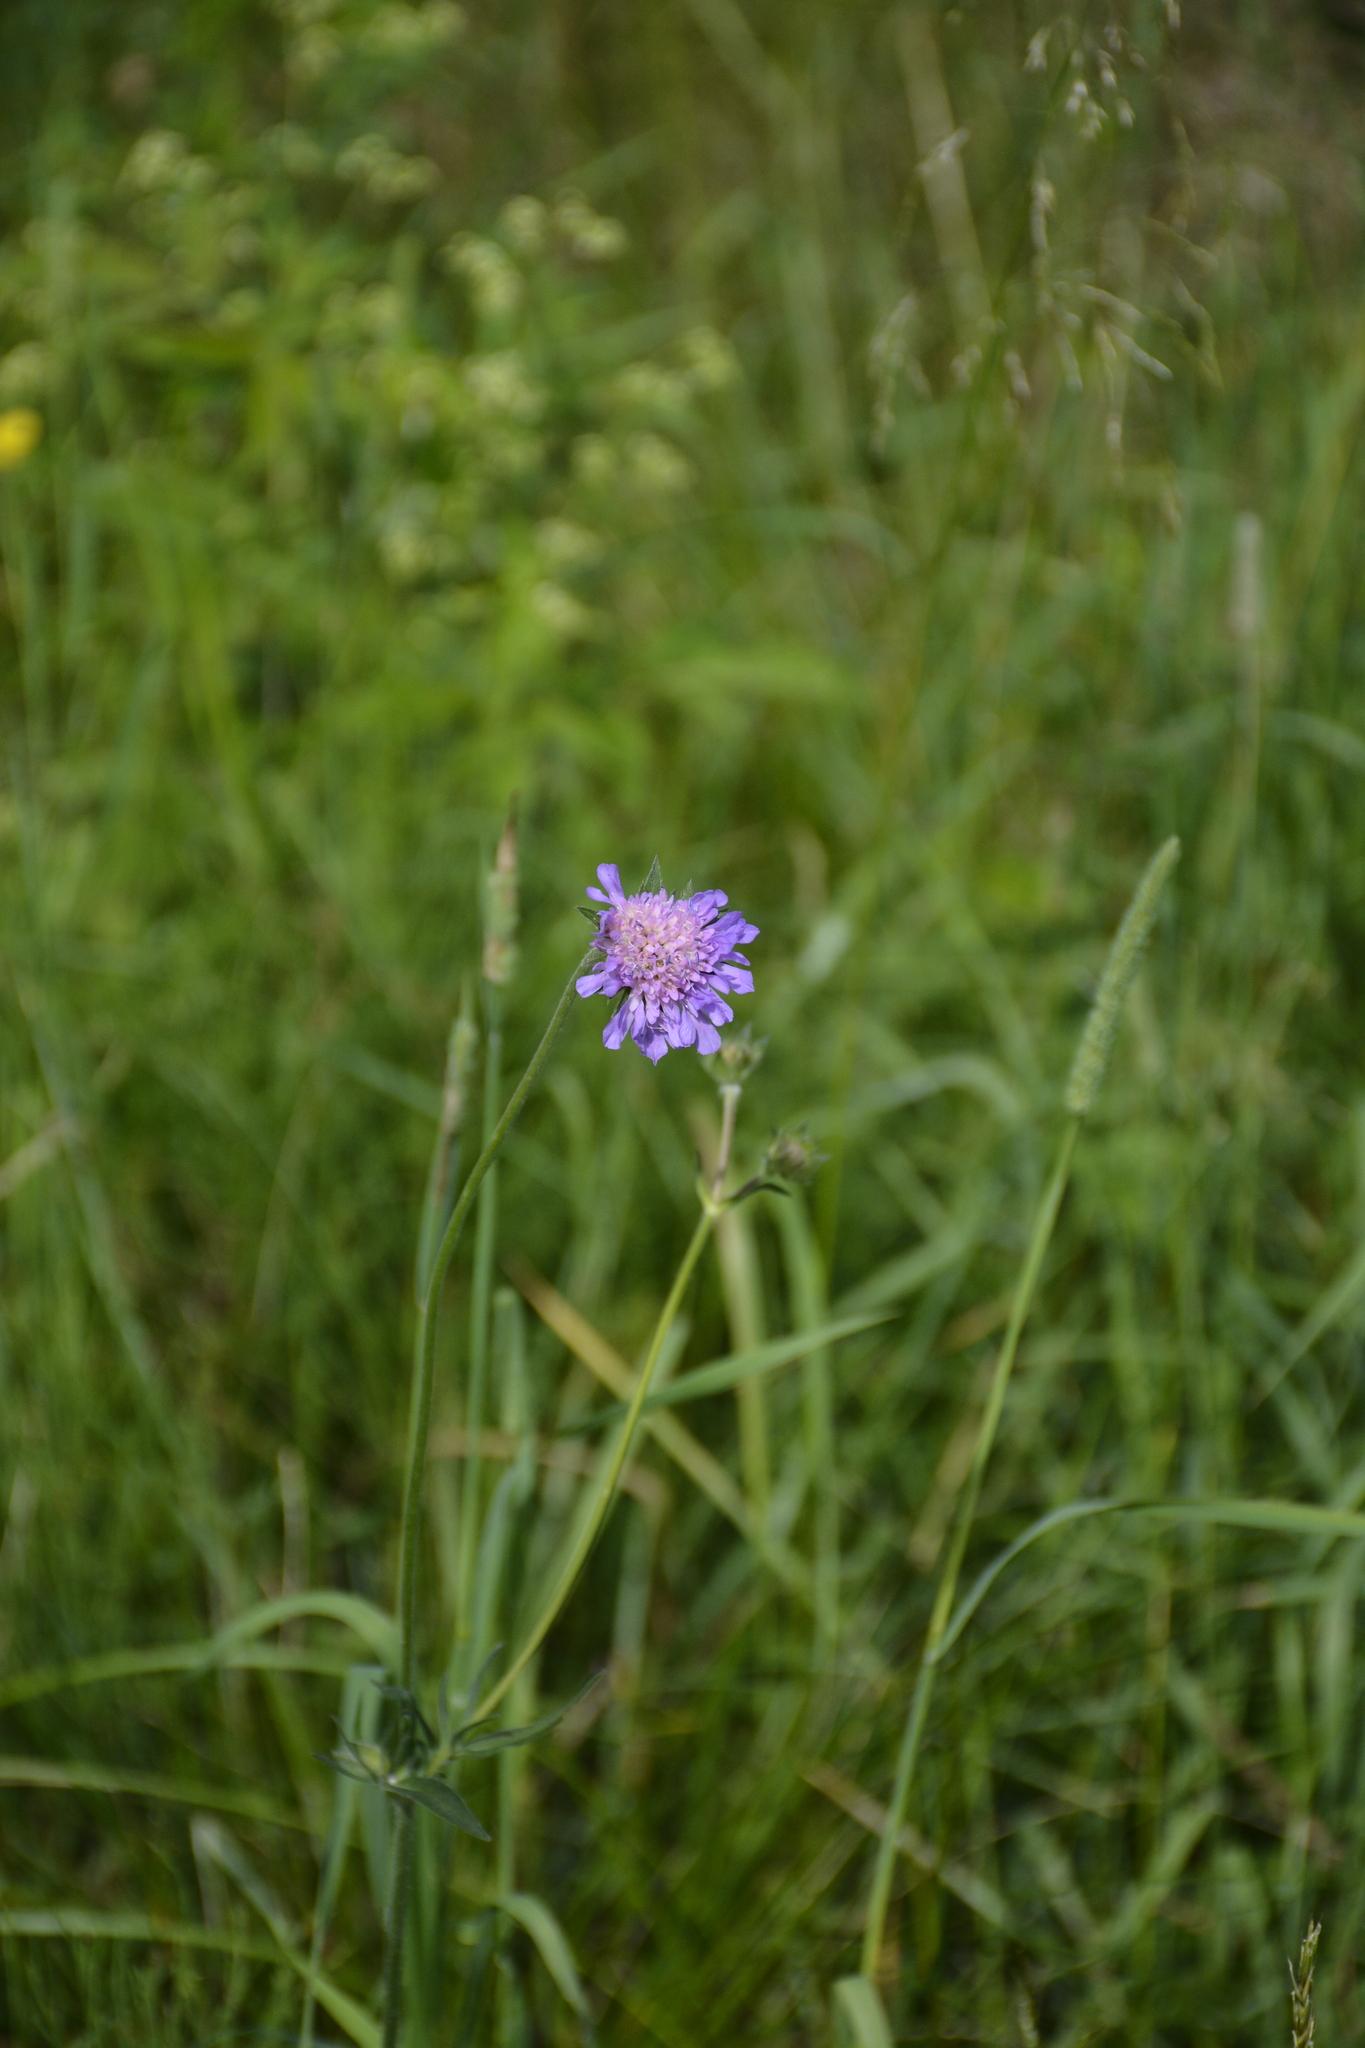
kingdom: Plantae
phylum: Tracheophyta
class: Magnoliopsida
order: Dipsacales
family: Caprifoliaceae
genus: Knautia
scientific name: Knautia arvensis
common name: Field scabiosa
